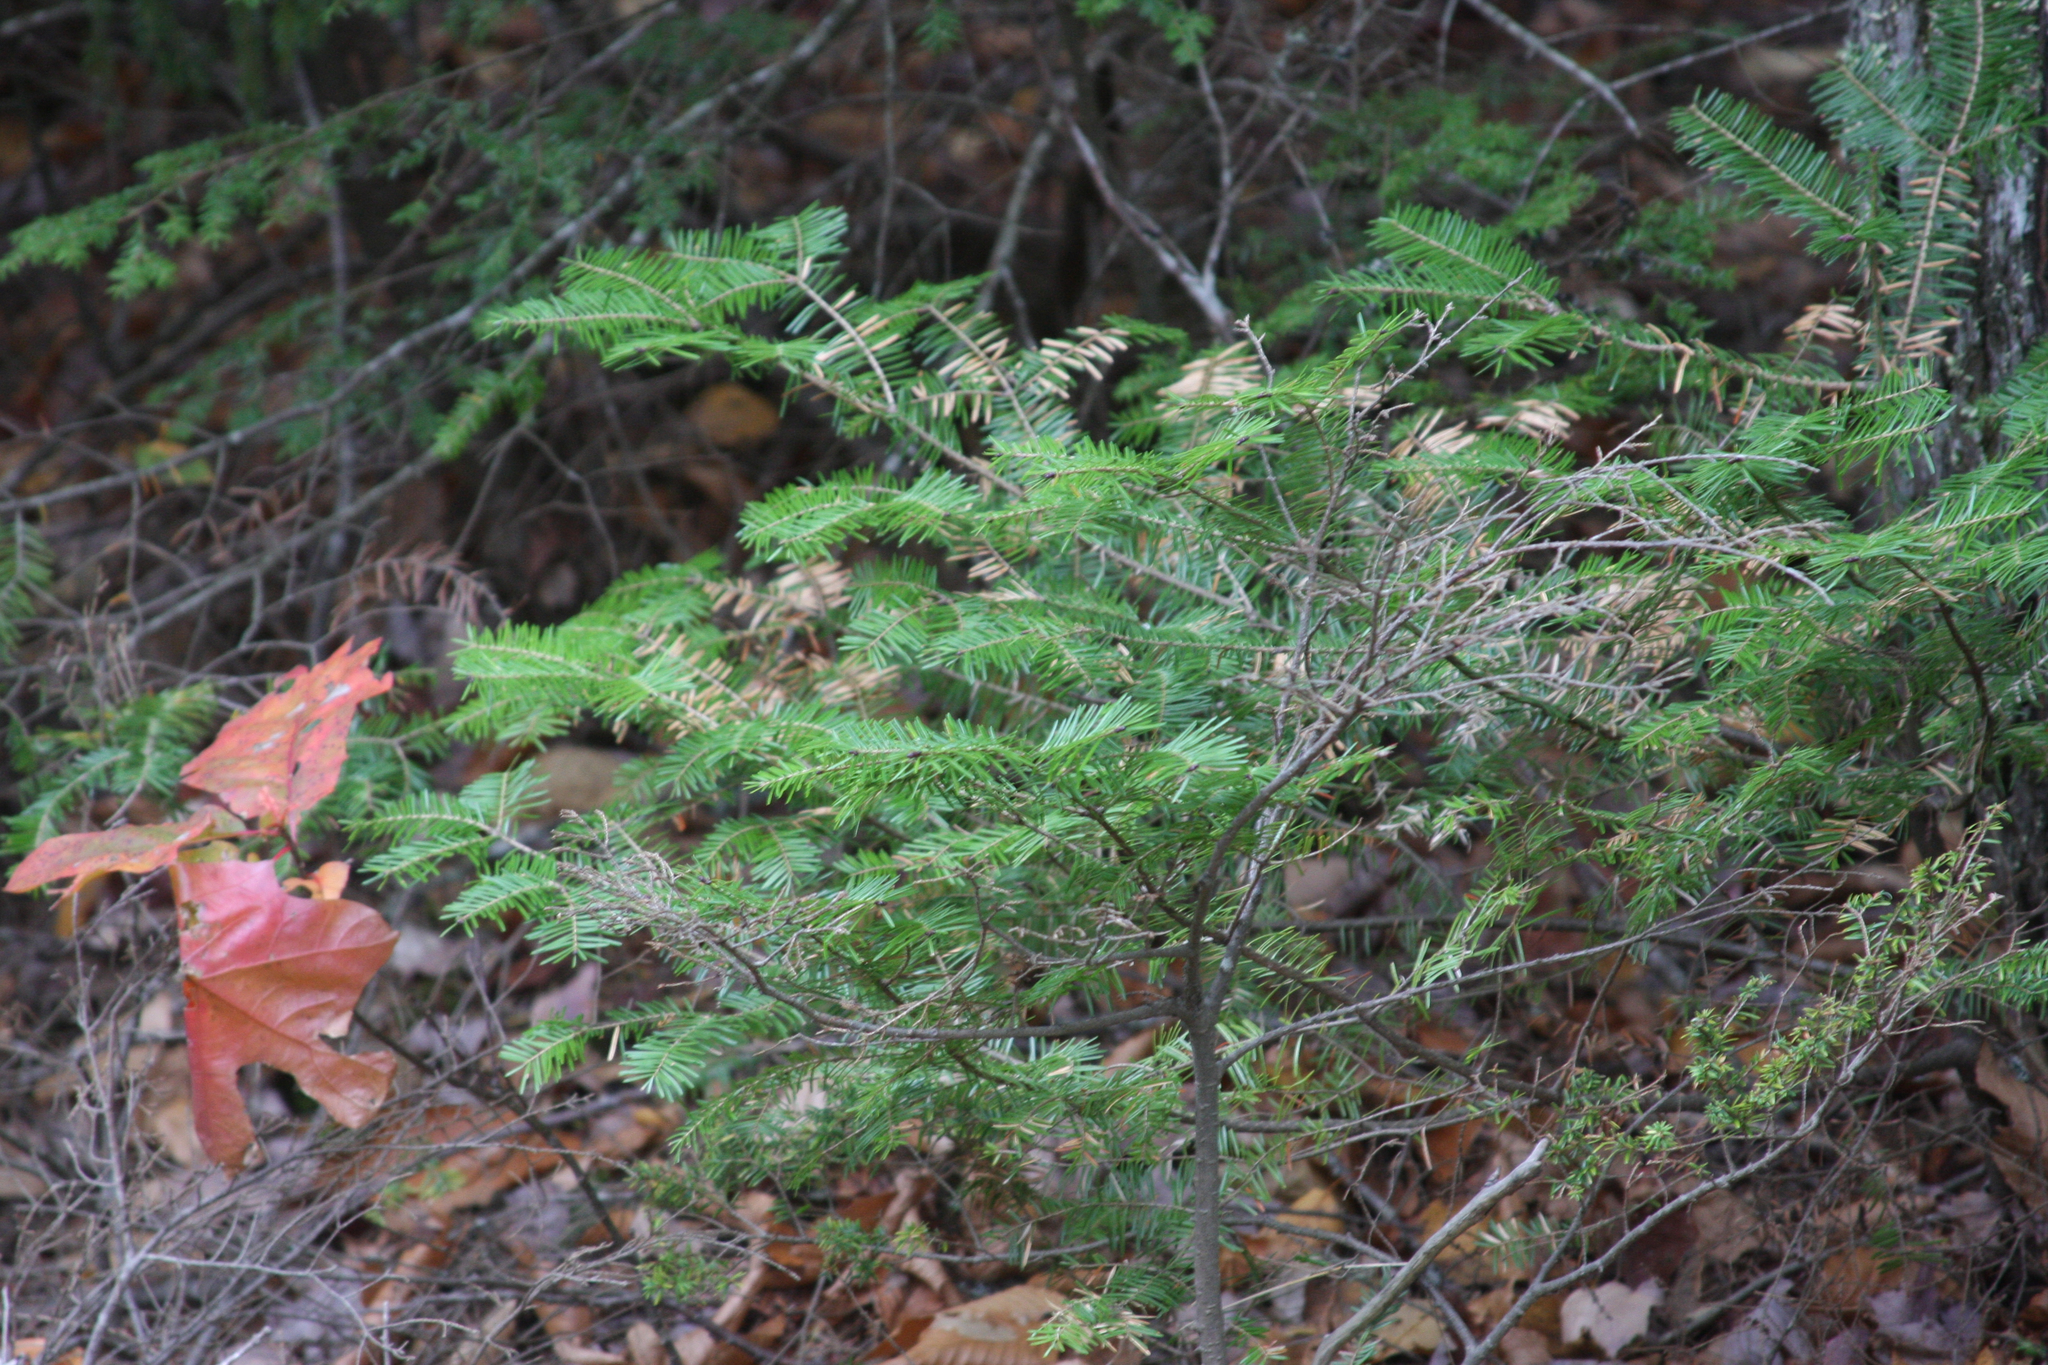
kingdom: Plantae
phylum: Tracheophyta
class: Pinopsida
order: Pinales
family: Pinaceae
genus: Abies
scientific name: Abies balsamea
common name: Balsam fir
